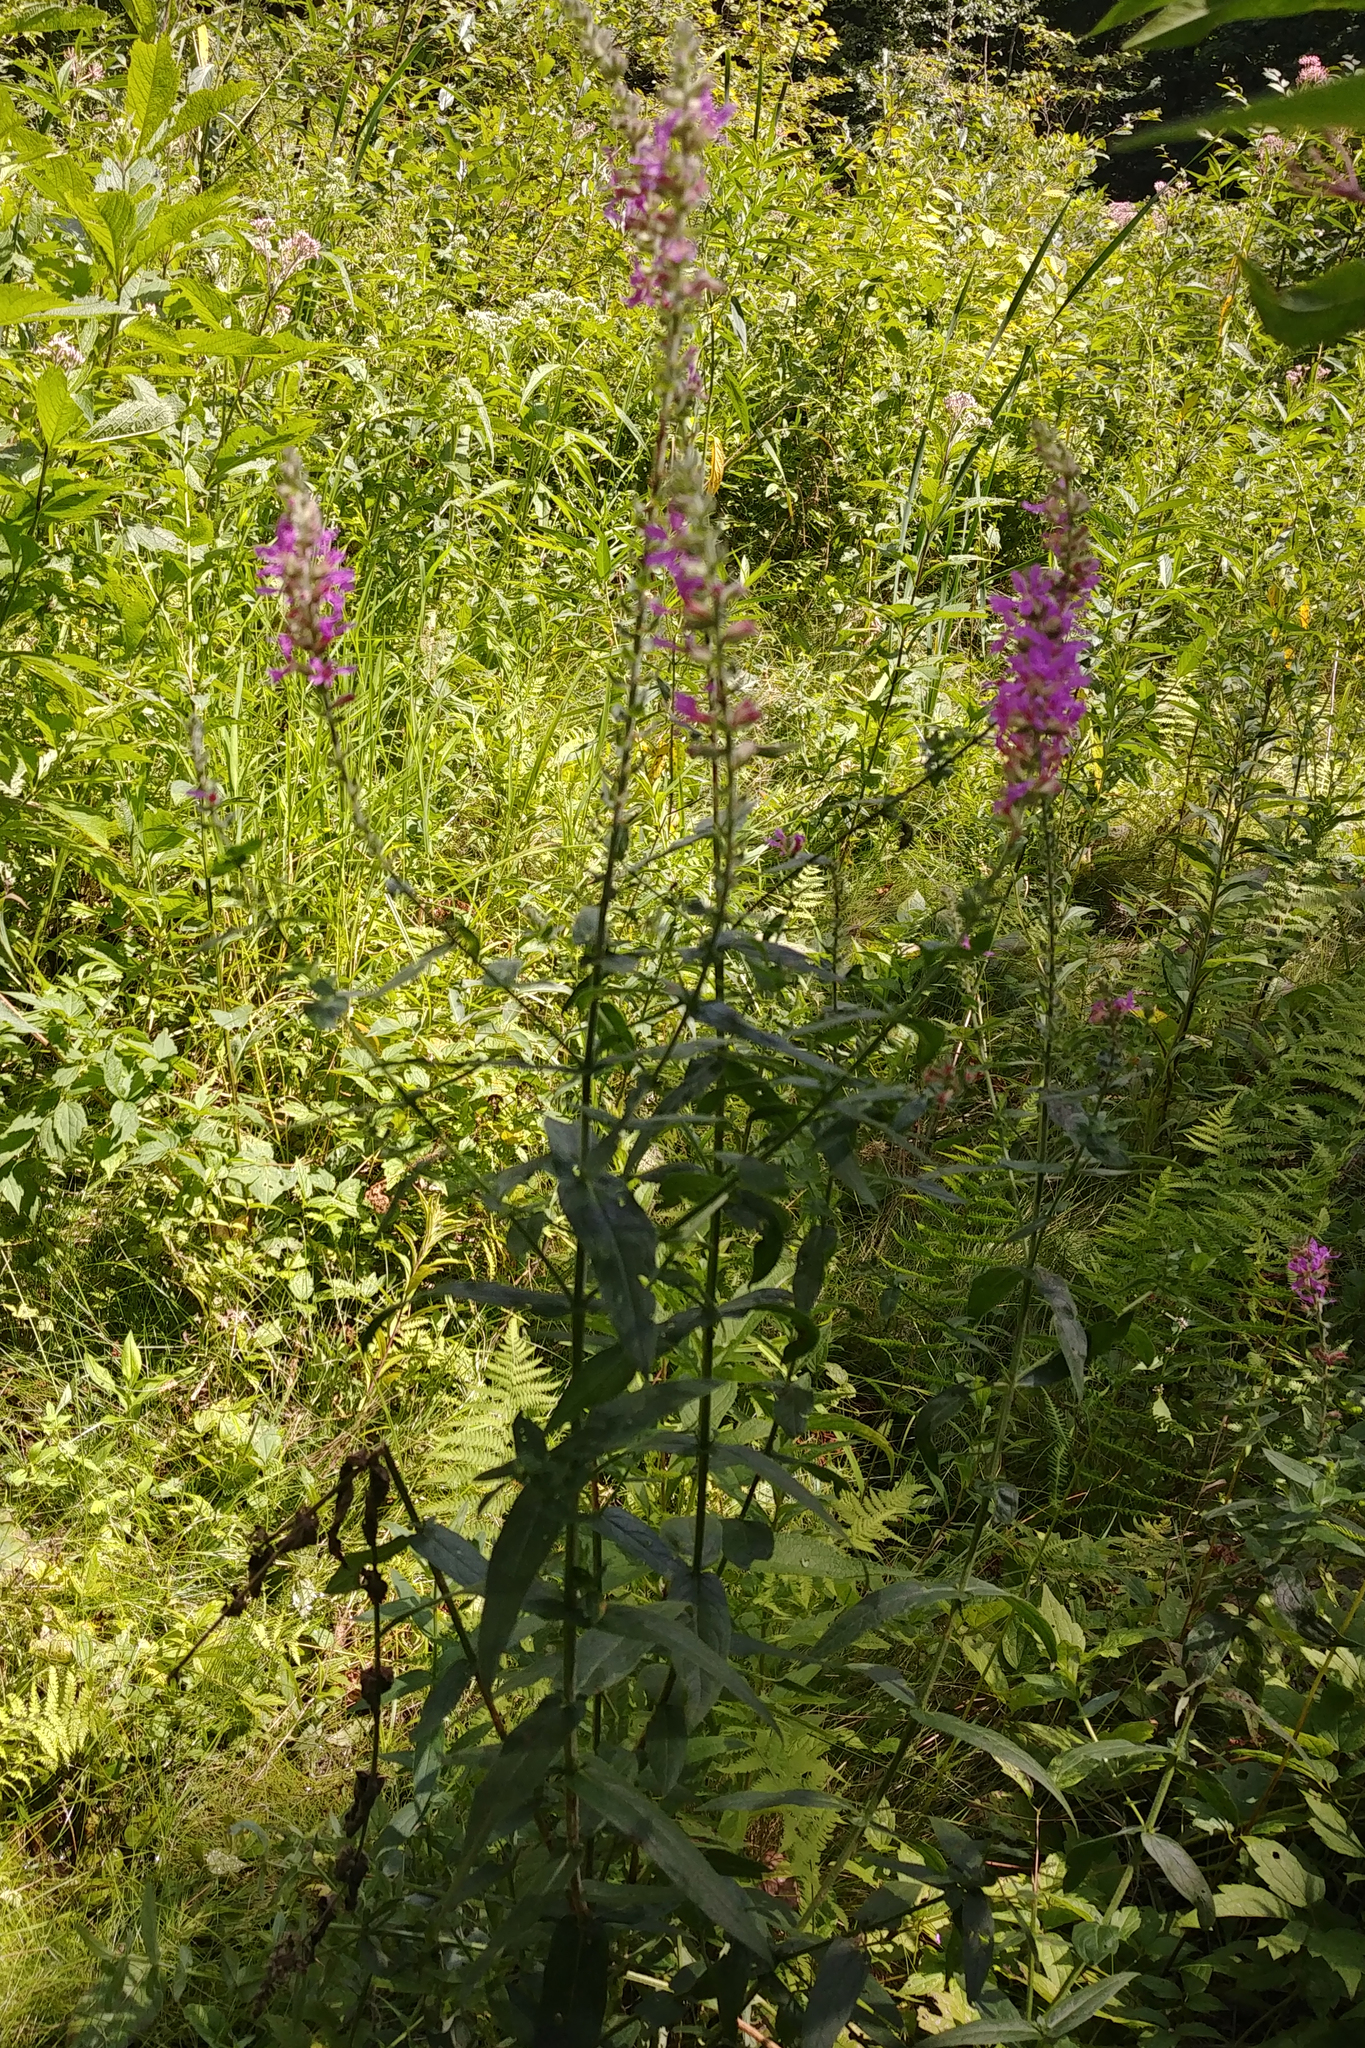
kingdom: Plantae
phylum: Tracheophyta
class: Magnoliopsida
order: Myrtales
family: Lythraceae
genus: Lythrum
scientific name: Lythrum salicaria
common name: Purple loosestrife
